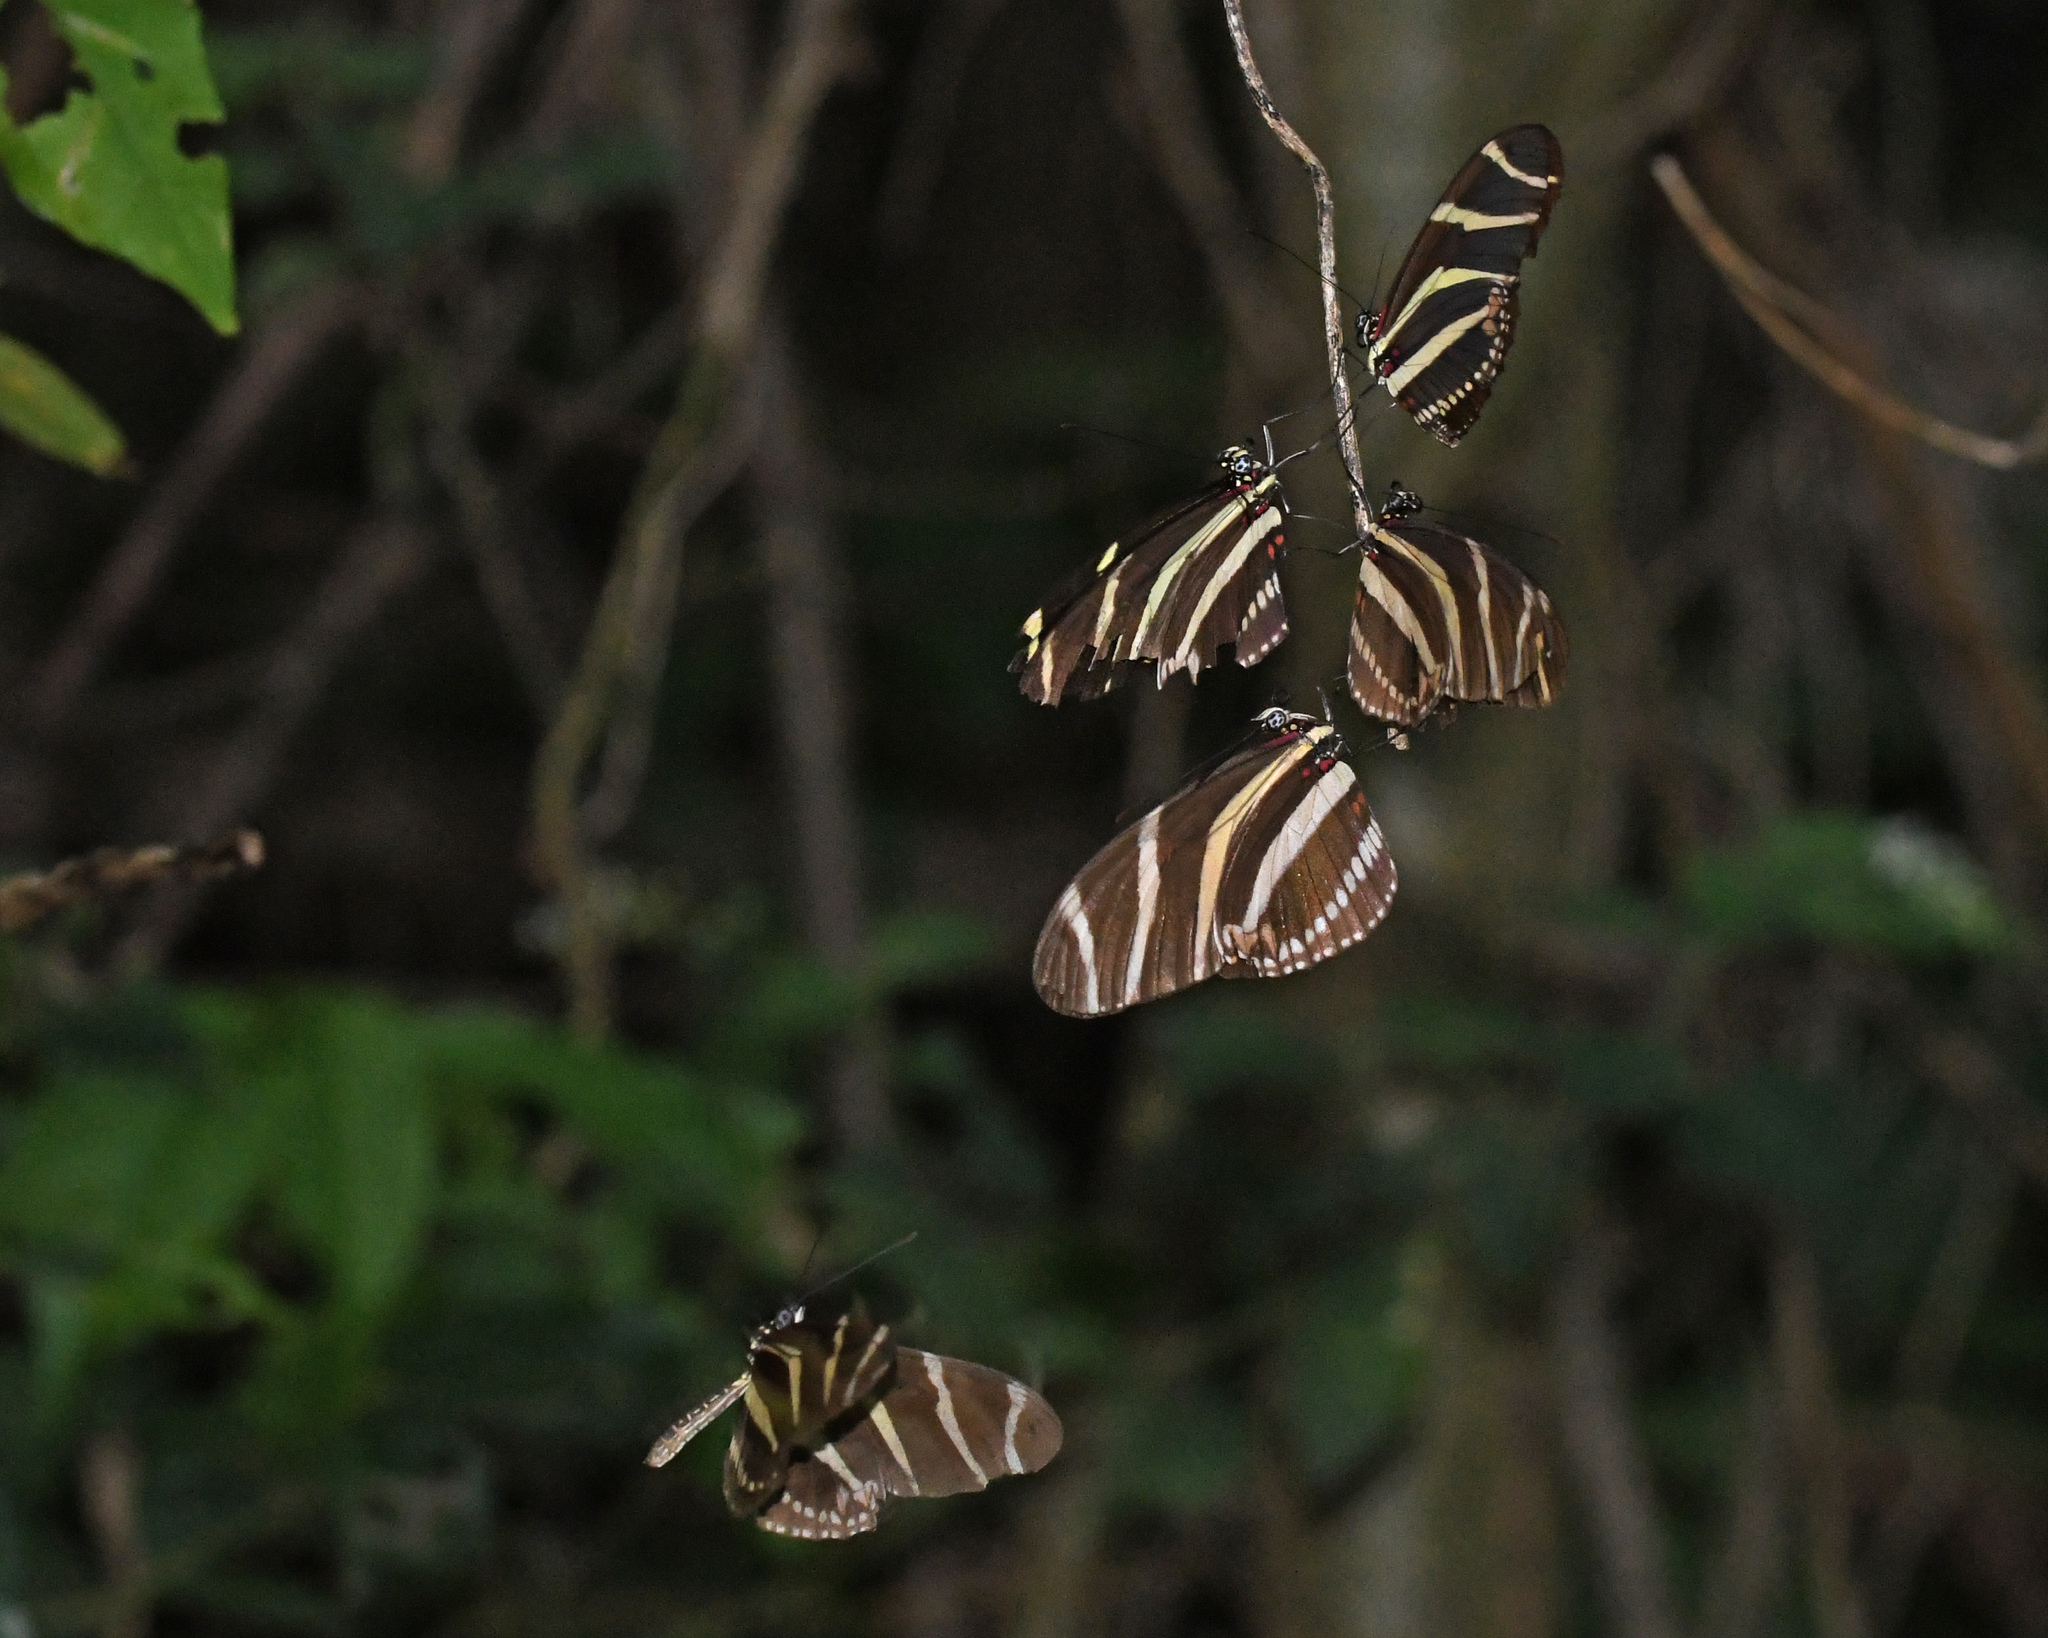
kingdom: Animalia
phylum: Arthropoda
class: Insecta
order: Lepidoptera
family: Nymphalidae
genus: Heliconius
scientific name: Heliconius charithonia
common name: Zebra long wing
